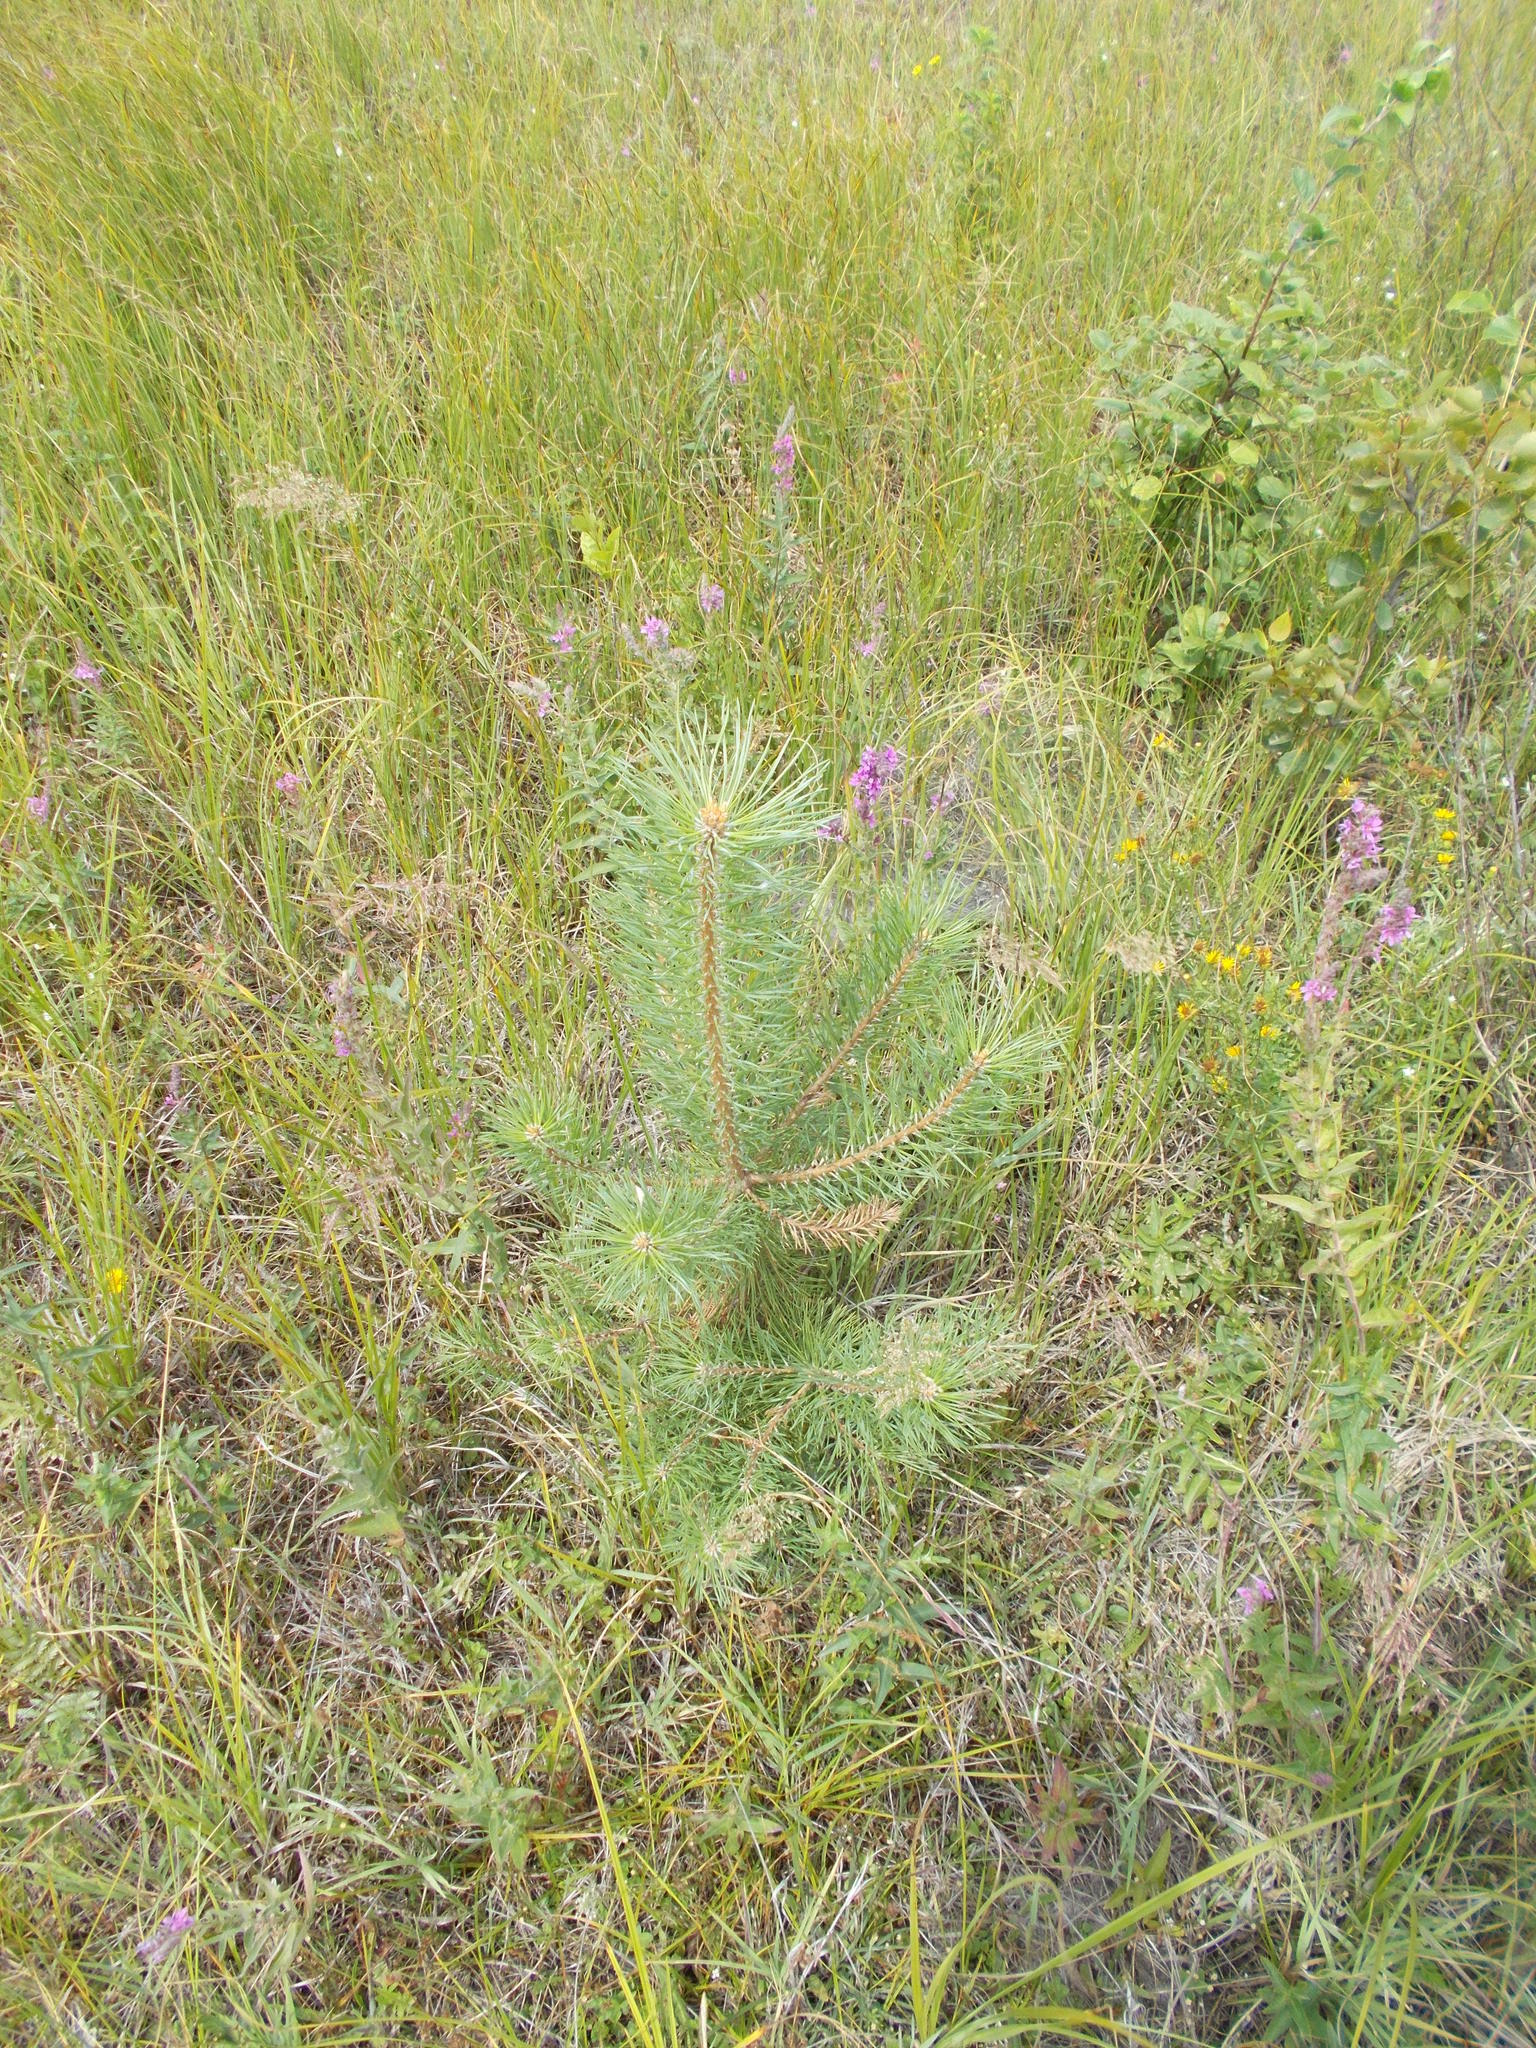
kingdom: Plantae
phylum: Tracheophyta
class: Pinopsida
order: Pinales
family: Pinaceae
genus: Pinus
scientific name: Pinus sylvestris
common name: Scots pine
